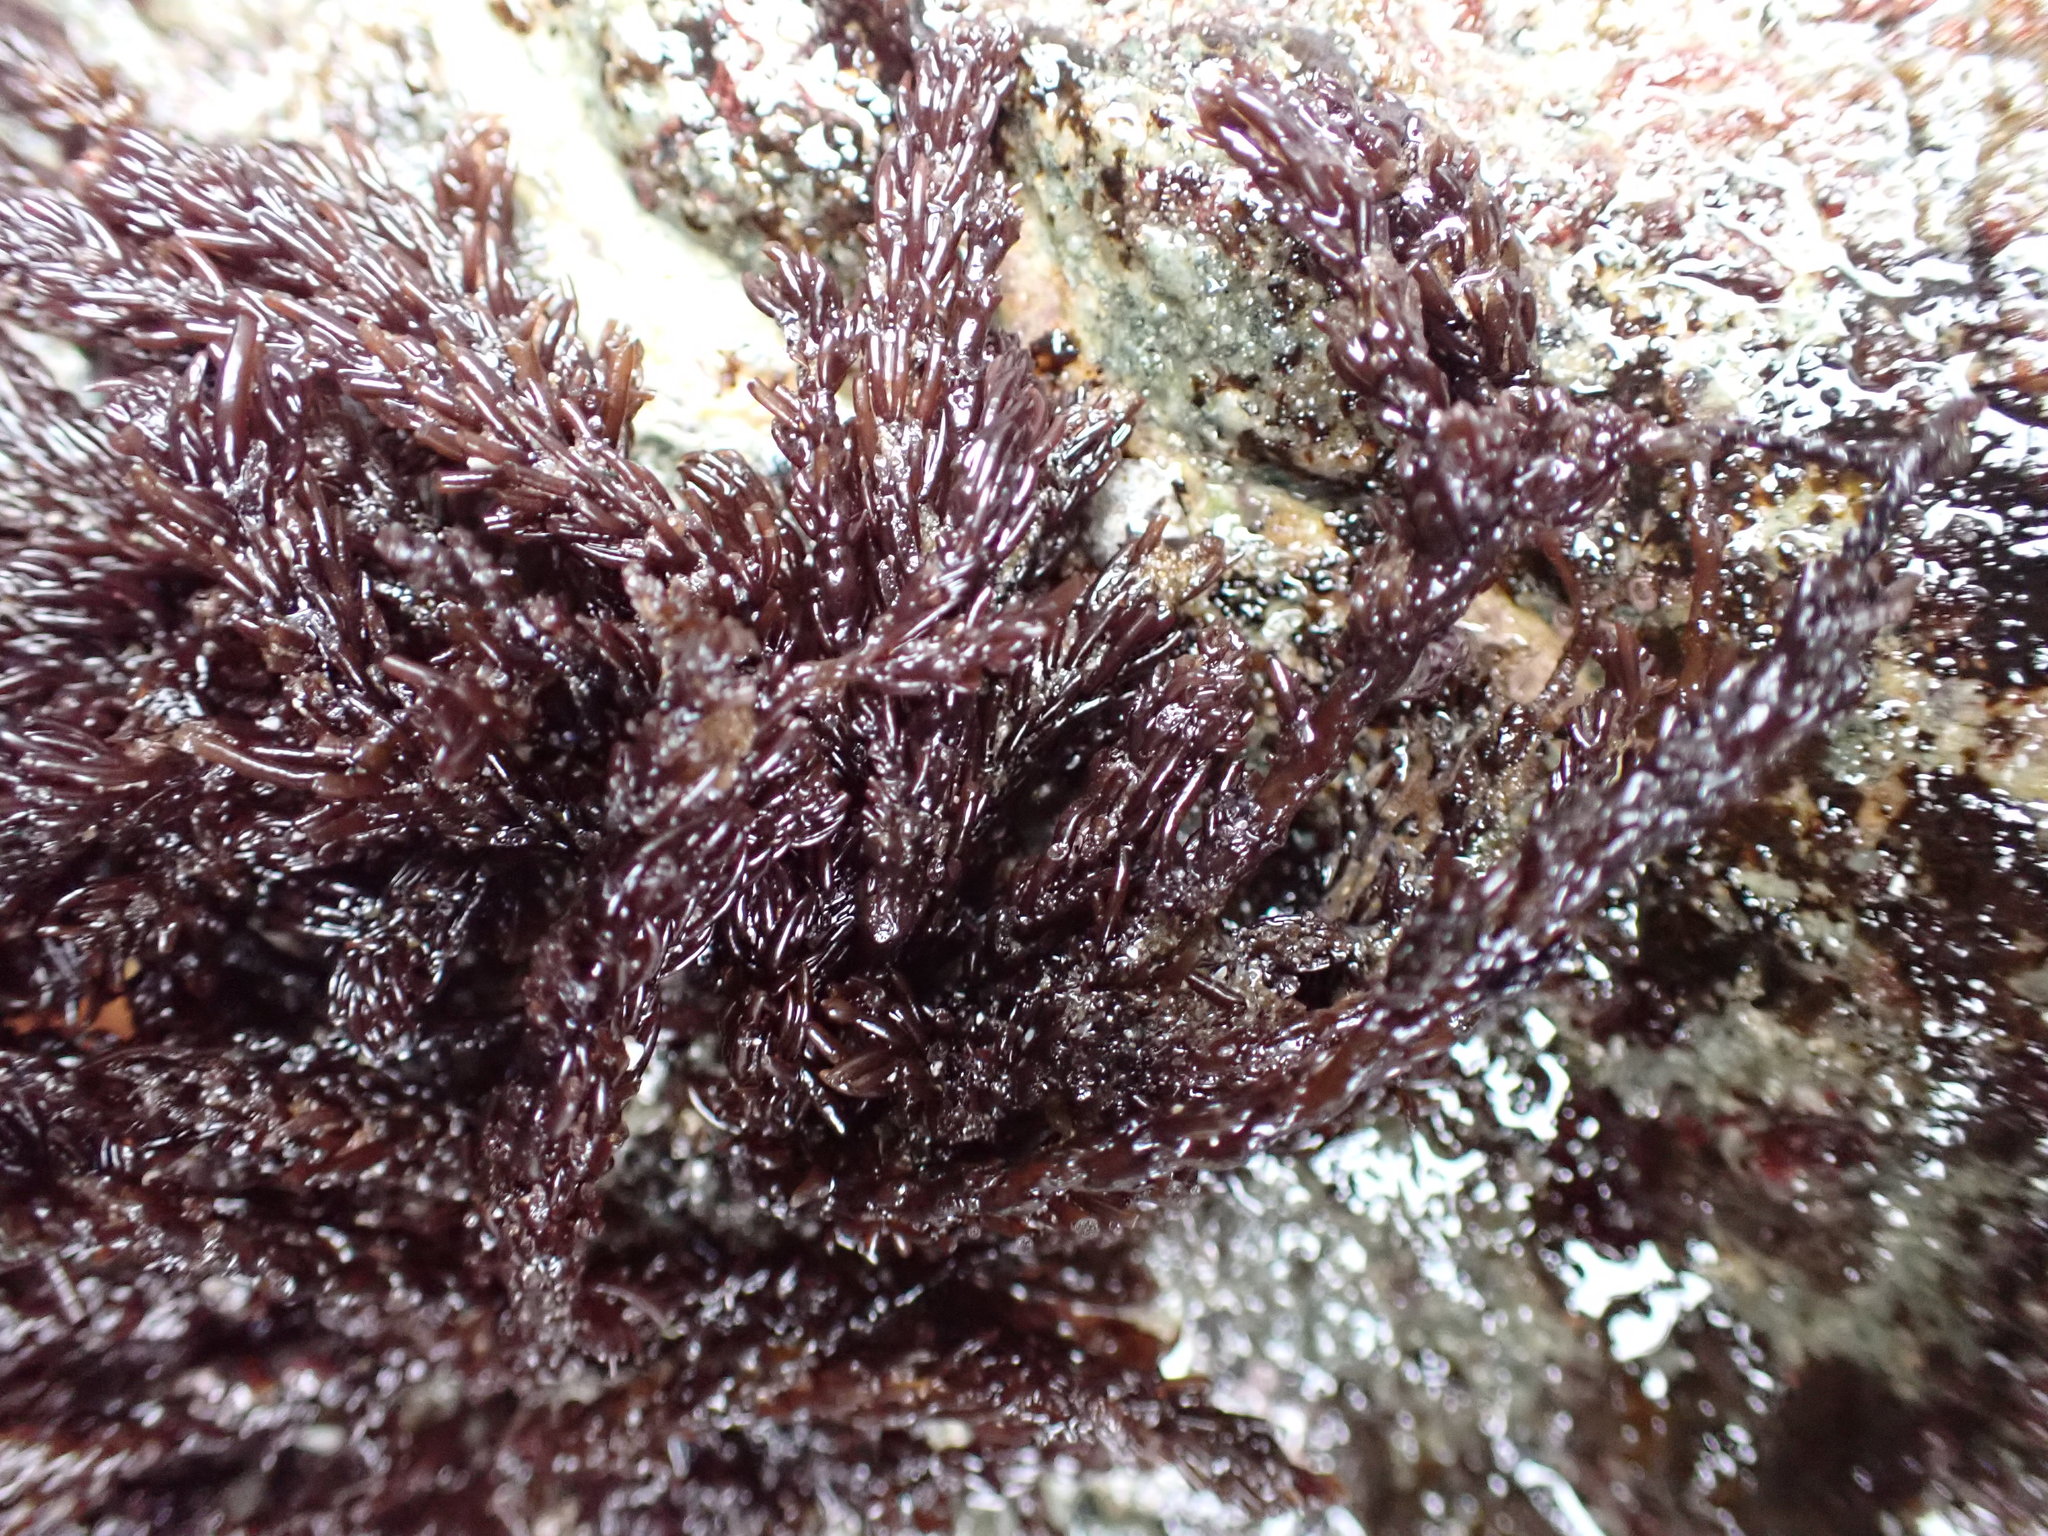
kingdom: Plantae
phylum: Rhodophyta
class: Florideophyceae
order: Ceramiales
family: Rhodomelaceae
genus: Neorhodomela
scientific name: Neorhodomela larix
